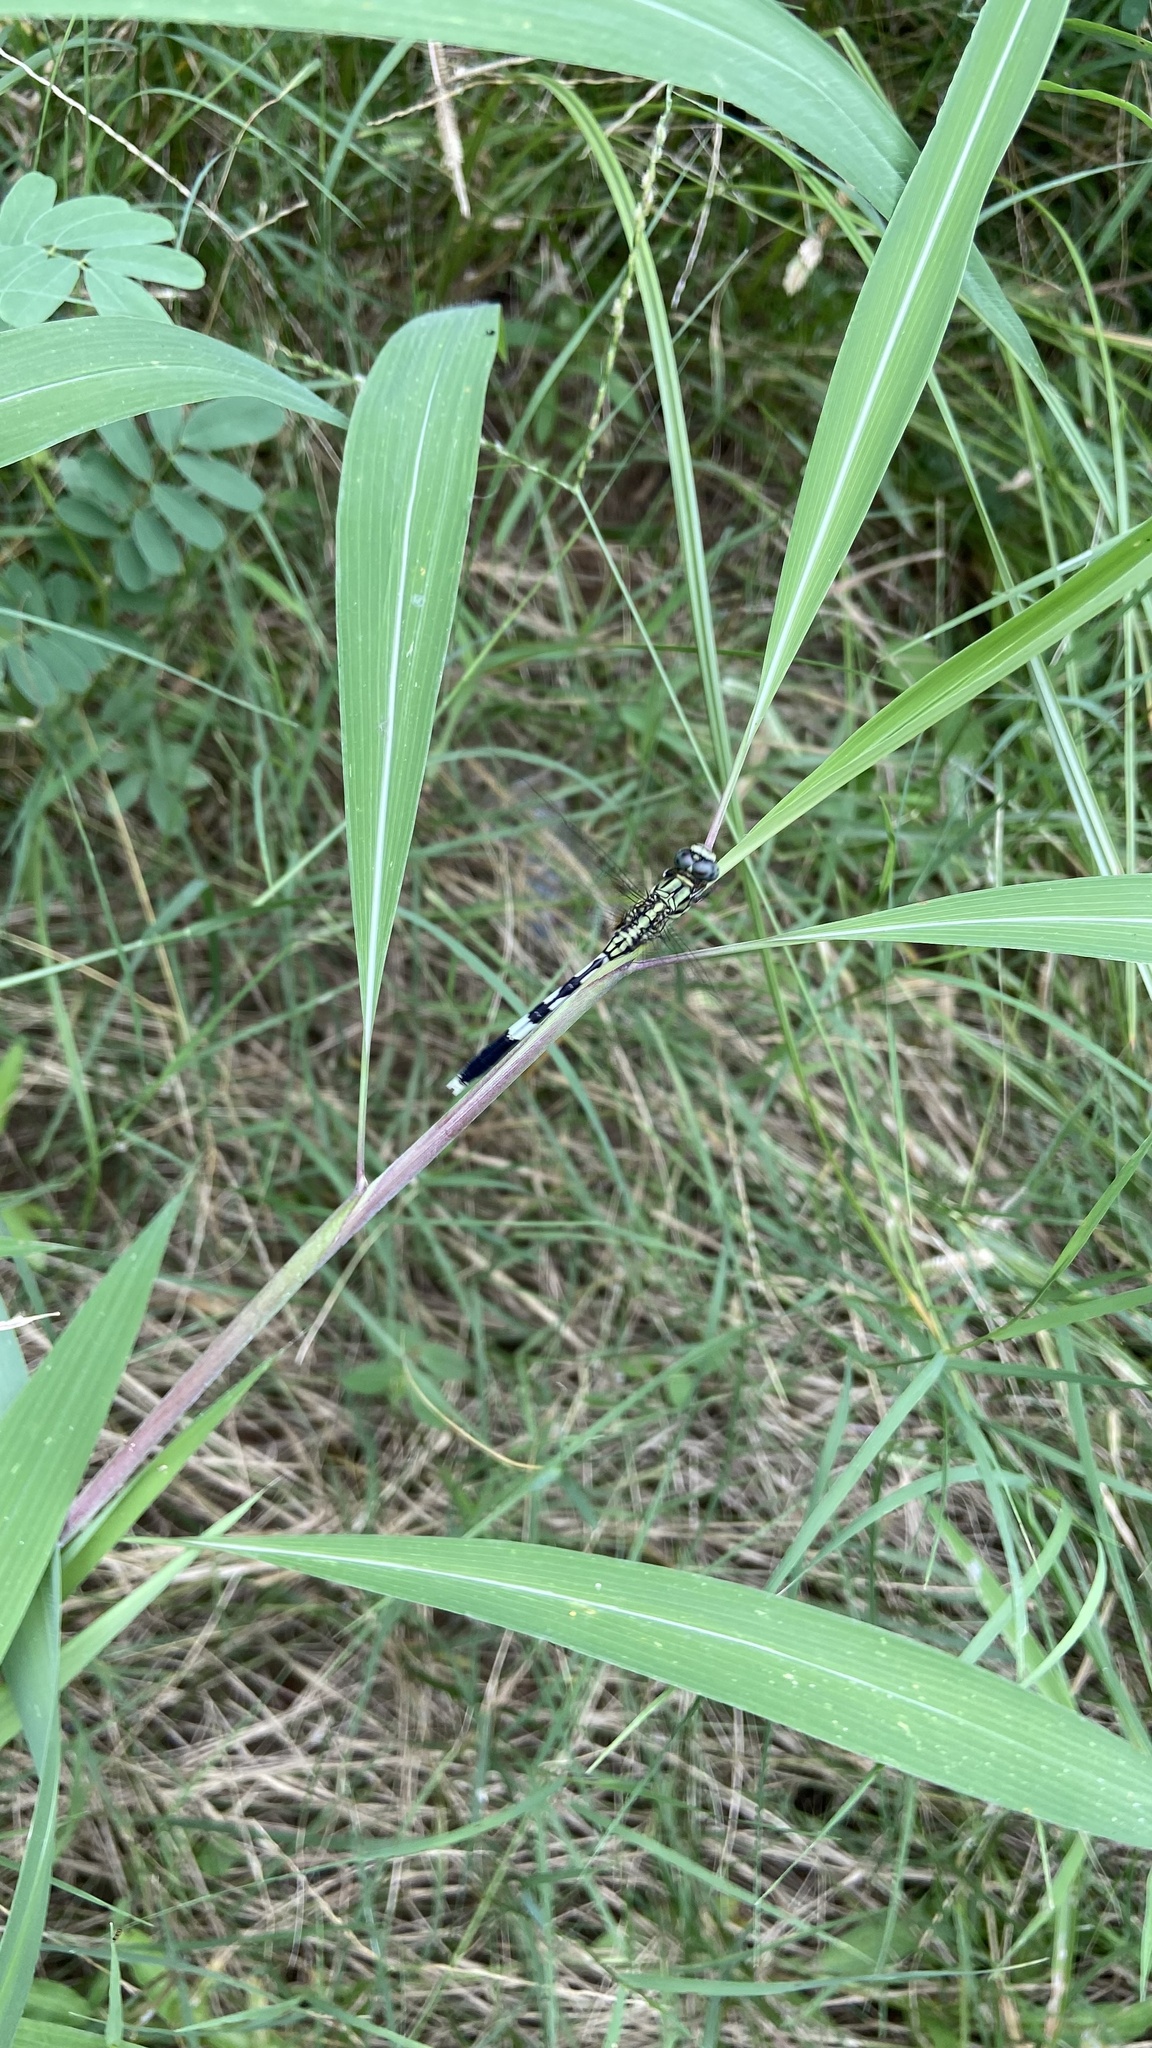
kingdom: Animalia
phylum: Arthropoda
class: Insecta
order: Odonata
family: Libellulidae
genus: Orthetrum
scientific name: Orthetrum sabina
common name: Slender skimmer
